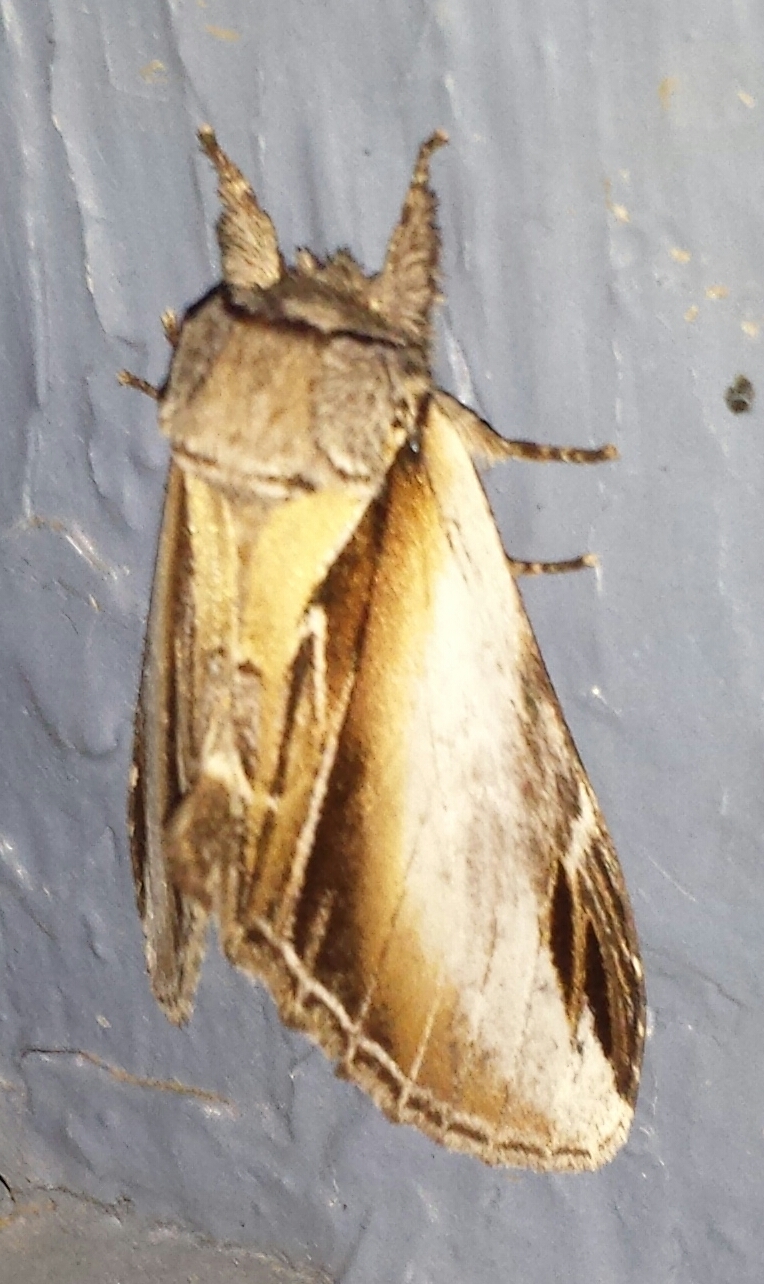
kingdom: Animalia
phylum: Arthropoda
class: Insecta
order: Lepidoptera
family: Notodontidae
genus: Pheosia
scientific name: Pheosia rimosa
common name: Black-rimmed prominent
